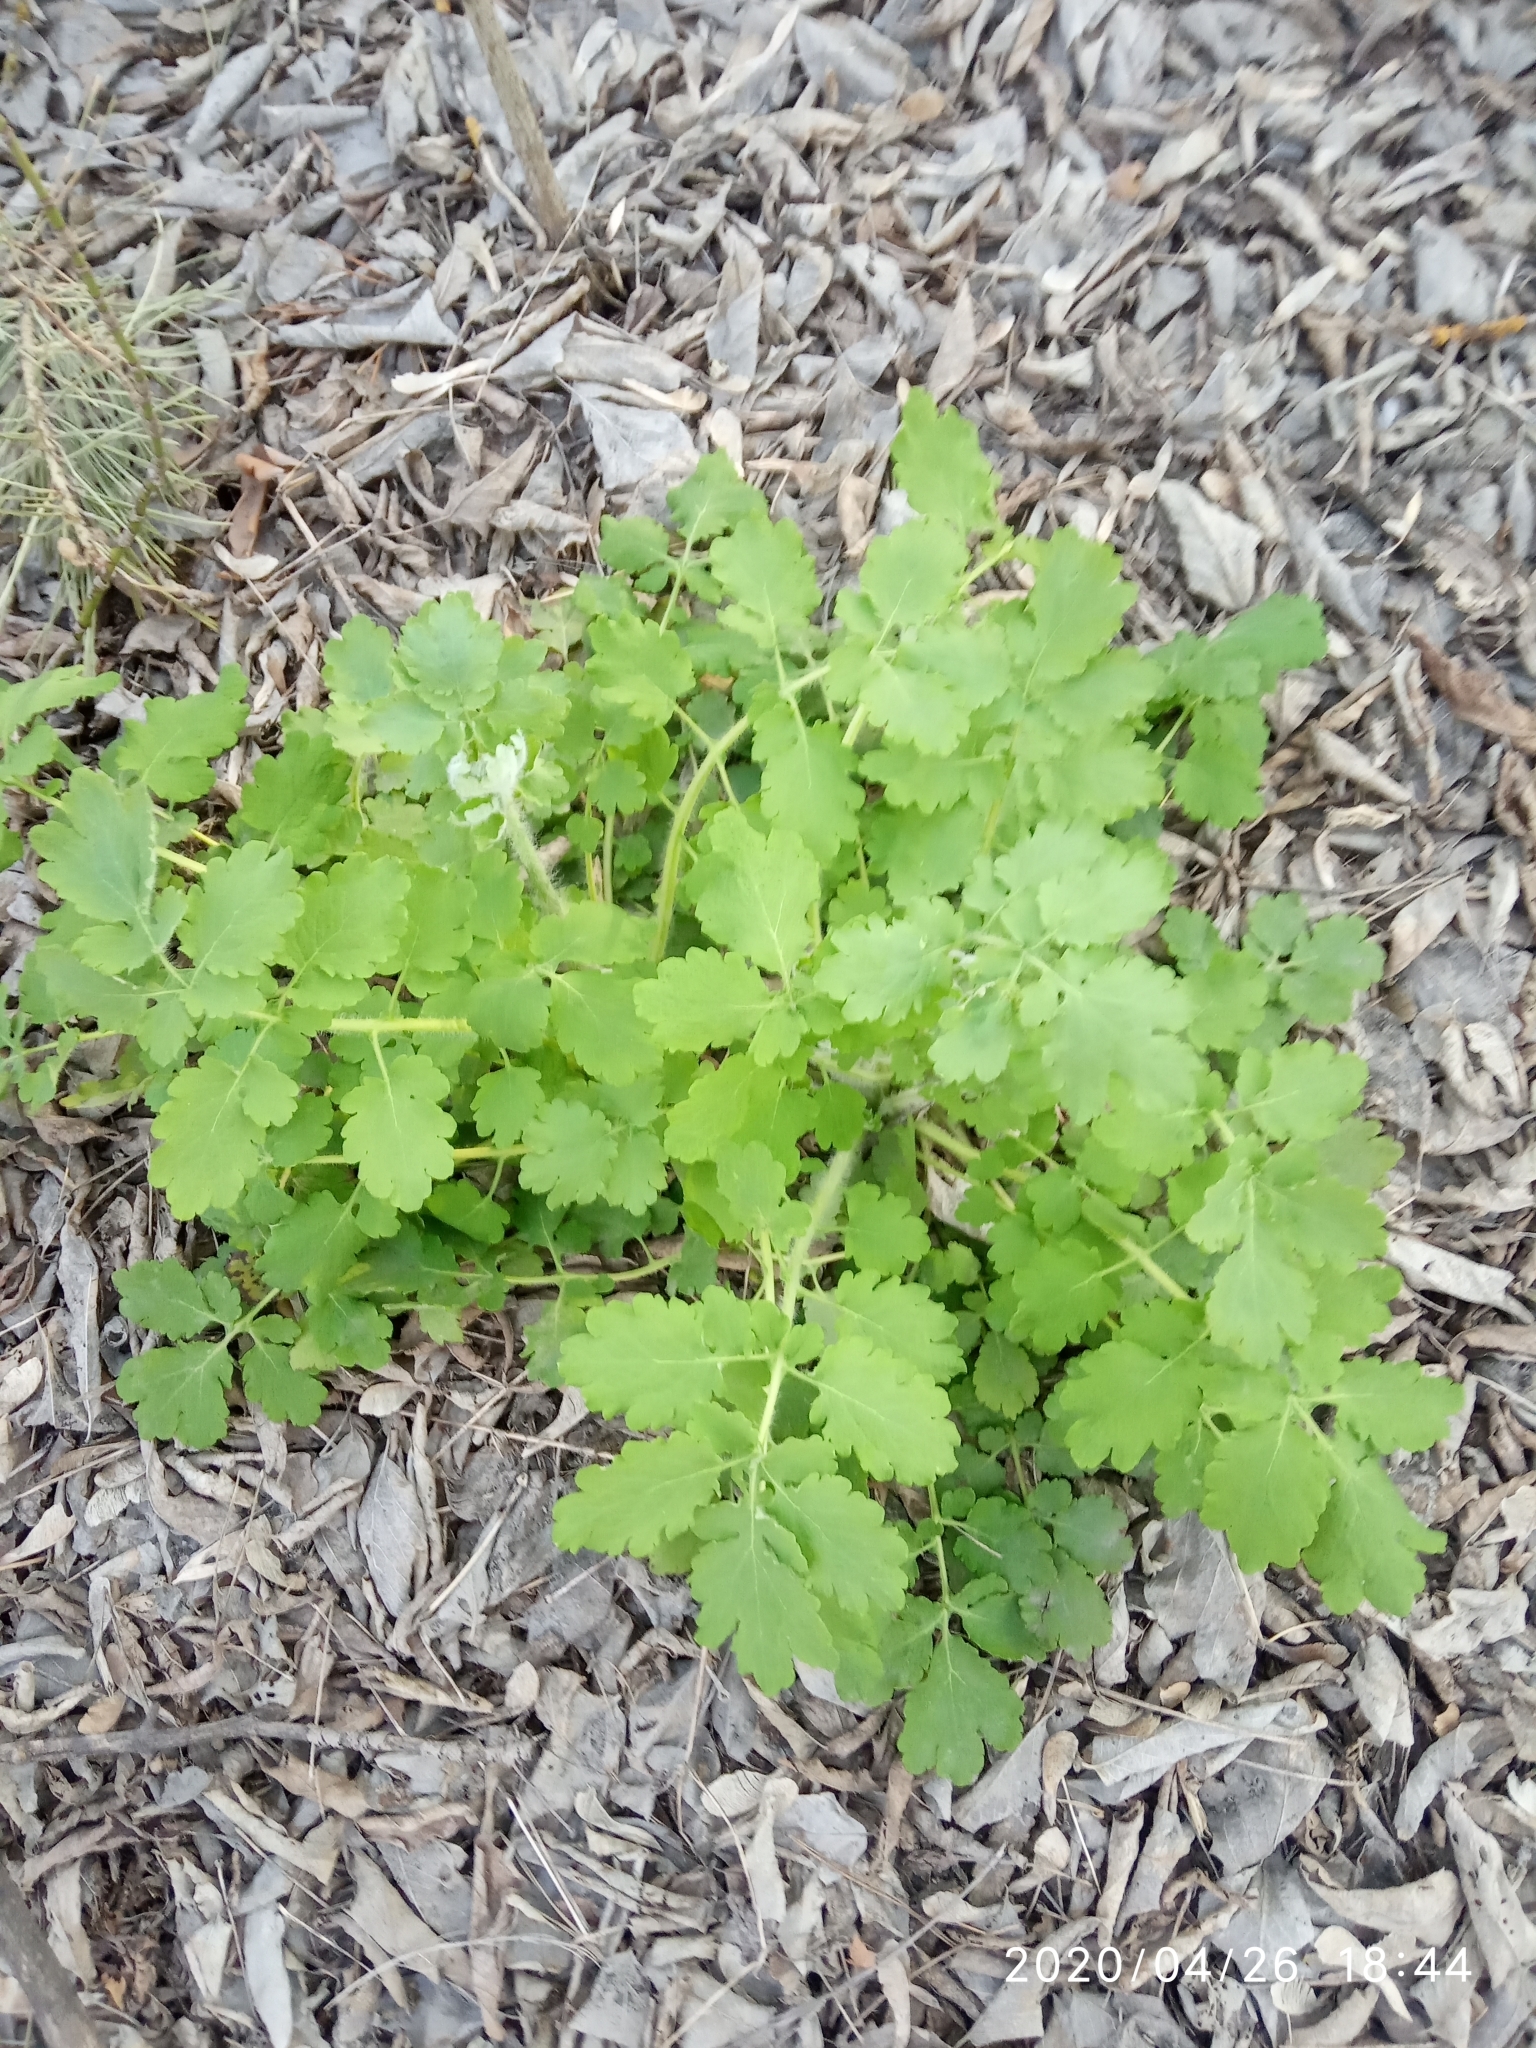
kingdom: Plantae
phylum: Tracheophyta
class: Magnoliopsida
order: Ranunculales
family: Papaveraceae
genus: Chelidonium
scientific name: Chelidonium majus
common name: Greater celandine
